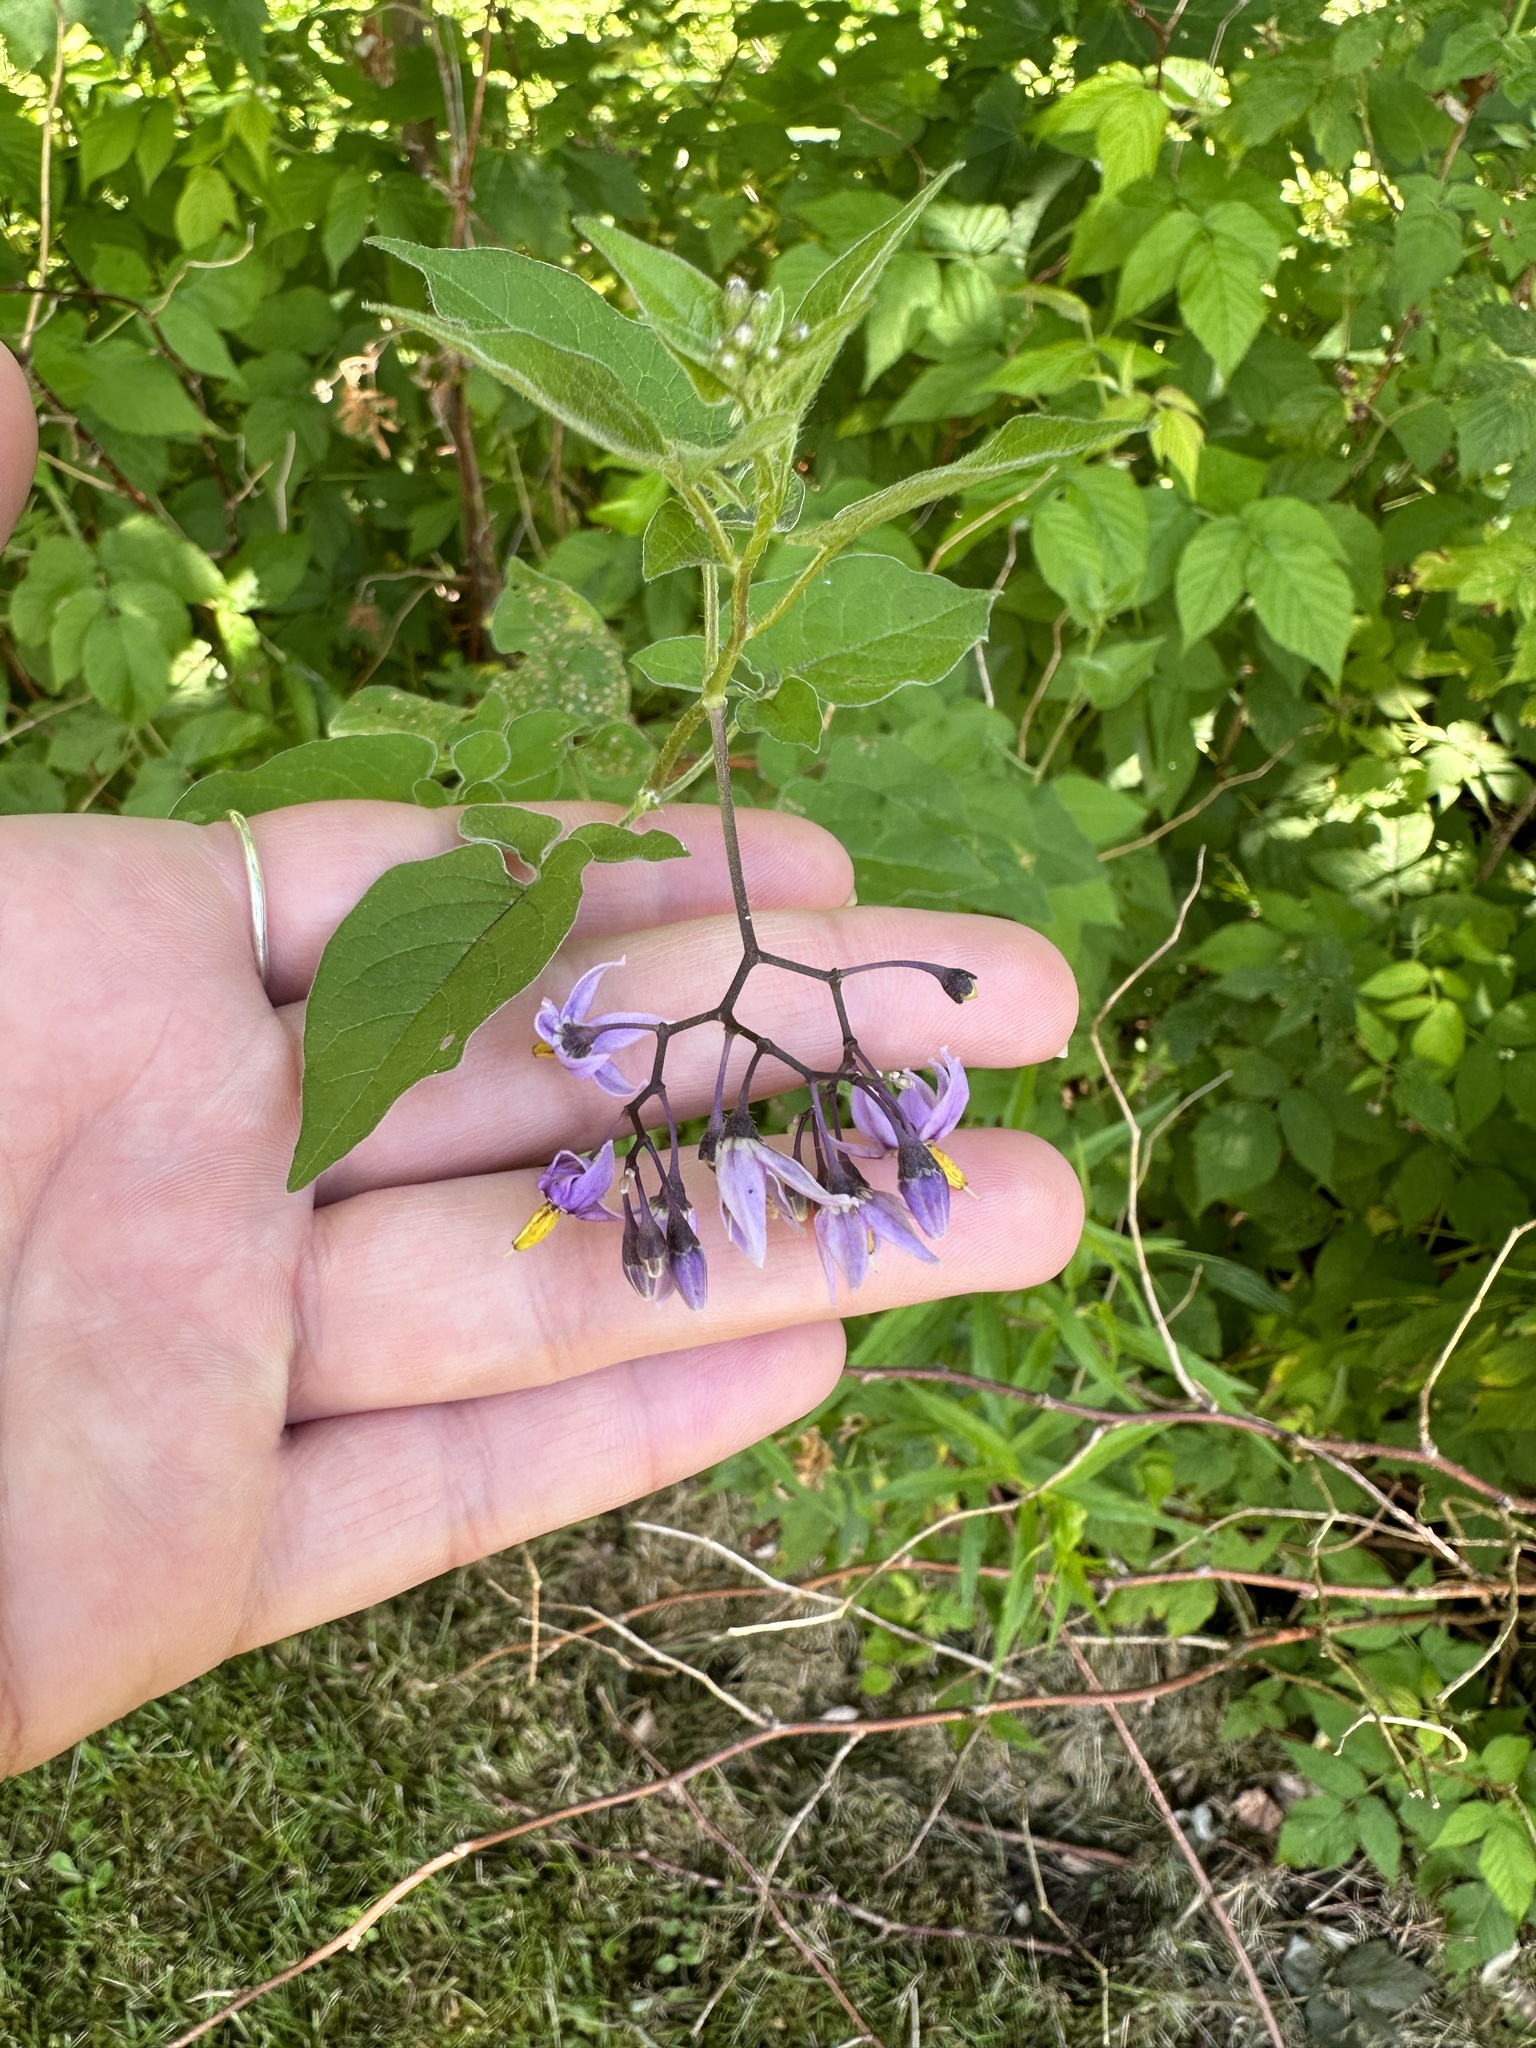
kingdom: Plantae
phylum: Tracheophyta
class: Magnoliopsida
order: Solanales
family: Solanaceae
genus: Solanum
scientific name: Solanum dulcamara
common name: Climbing nightshade
